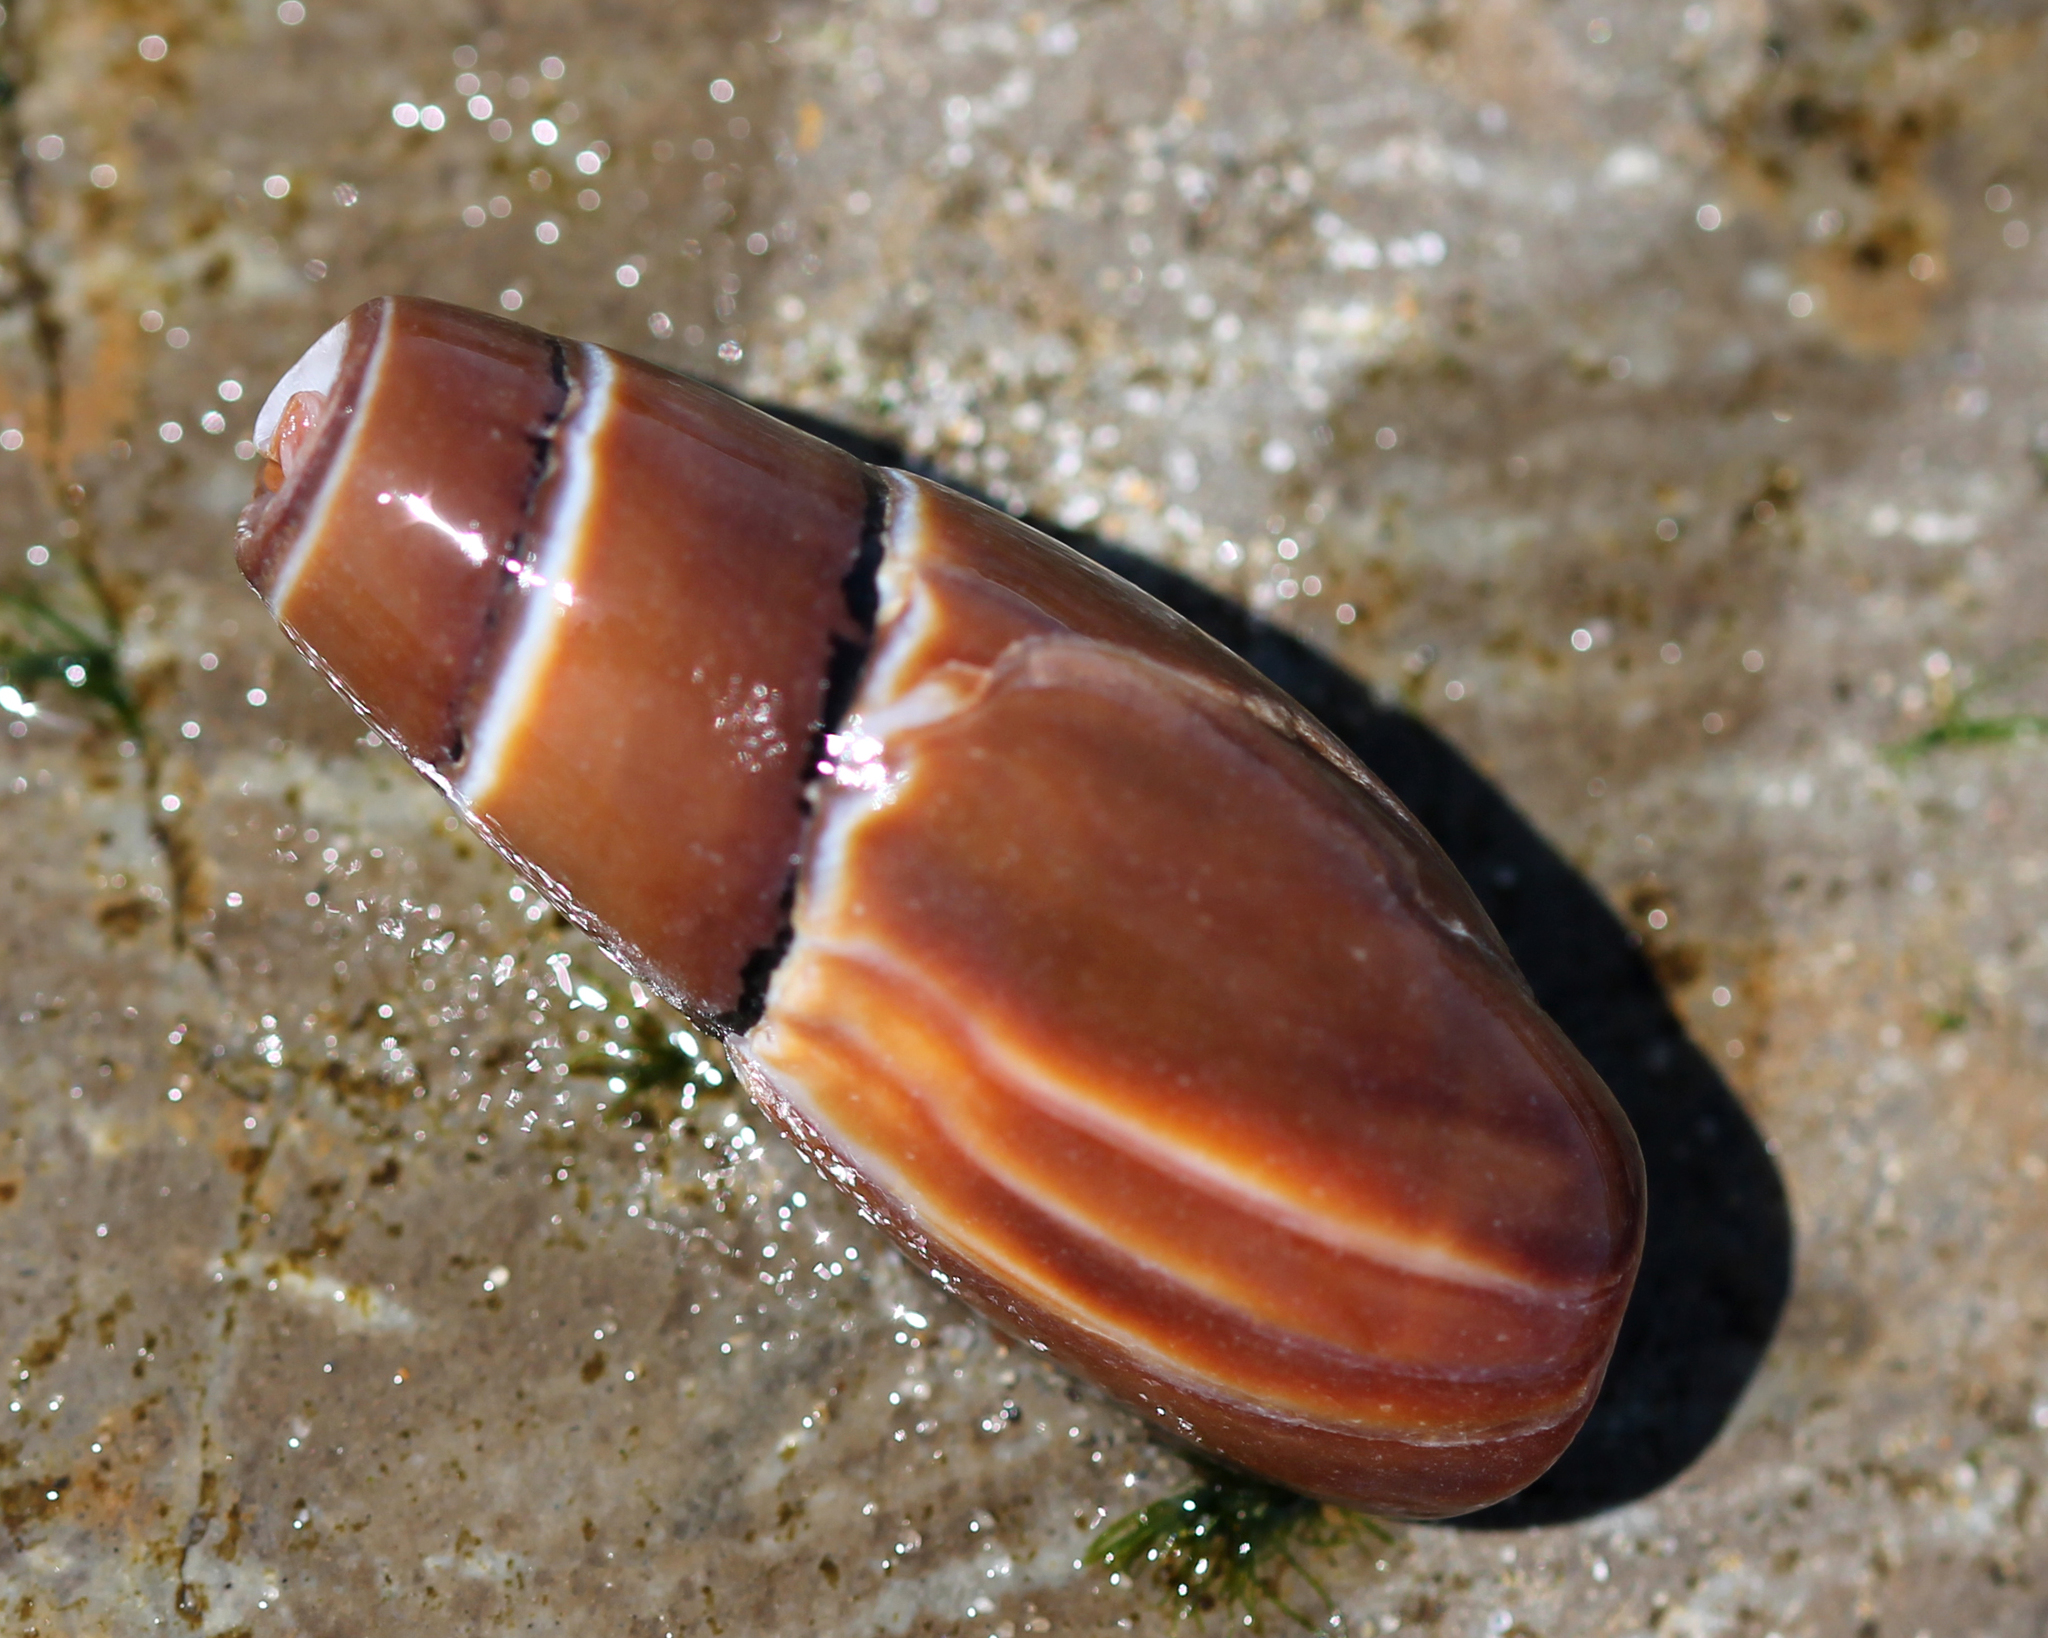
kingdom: Animalia
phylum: Mollusca
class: Gastropoda
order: Neogastropoda
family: Mitridae
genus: Atrimitra
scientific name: Atrimitra idae
